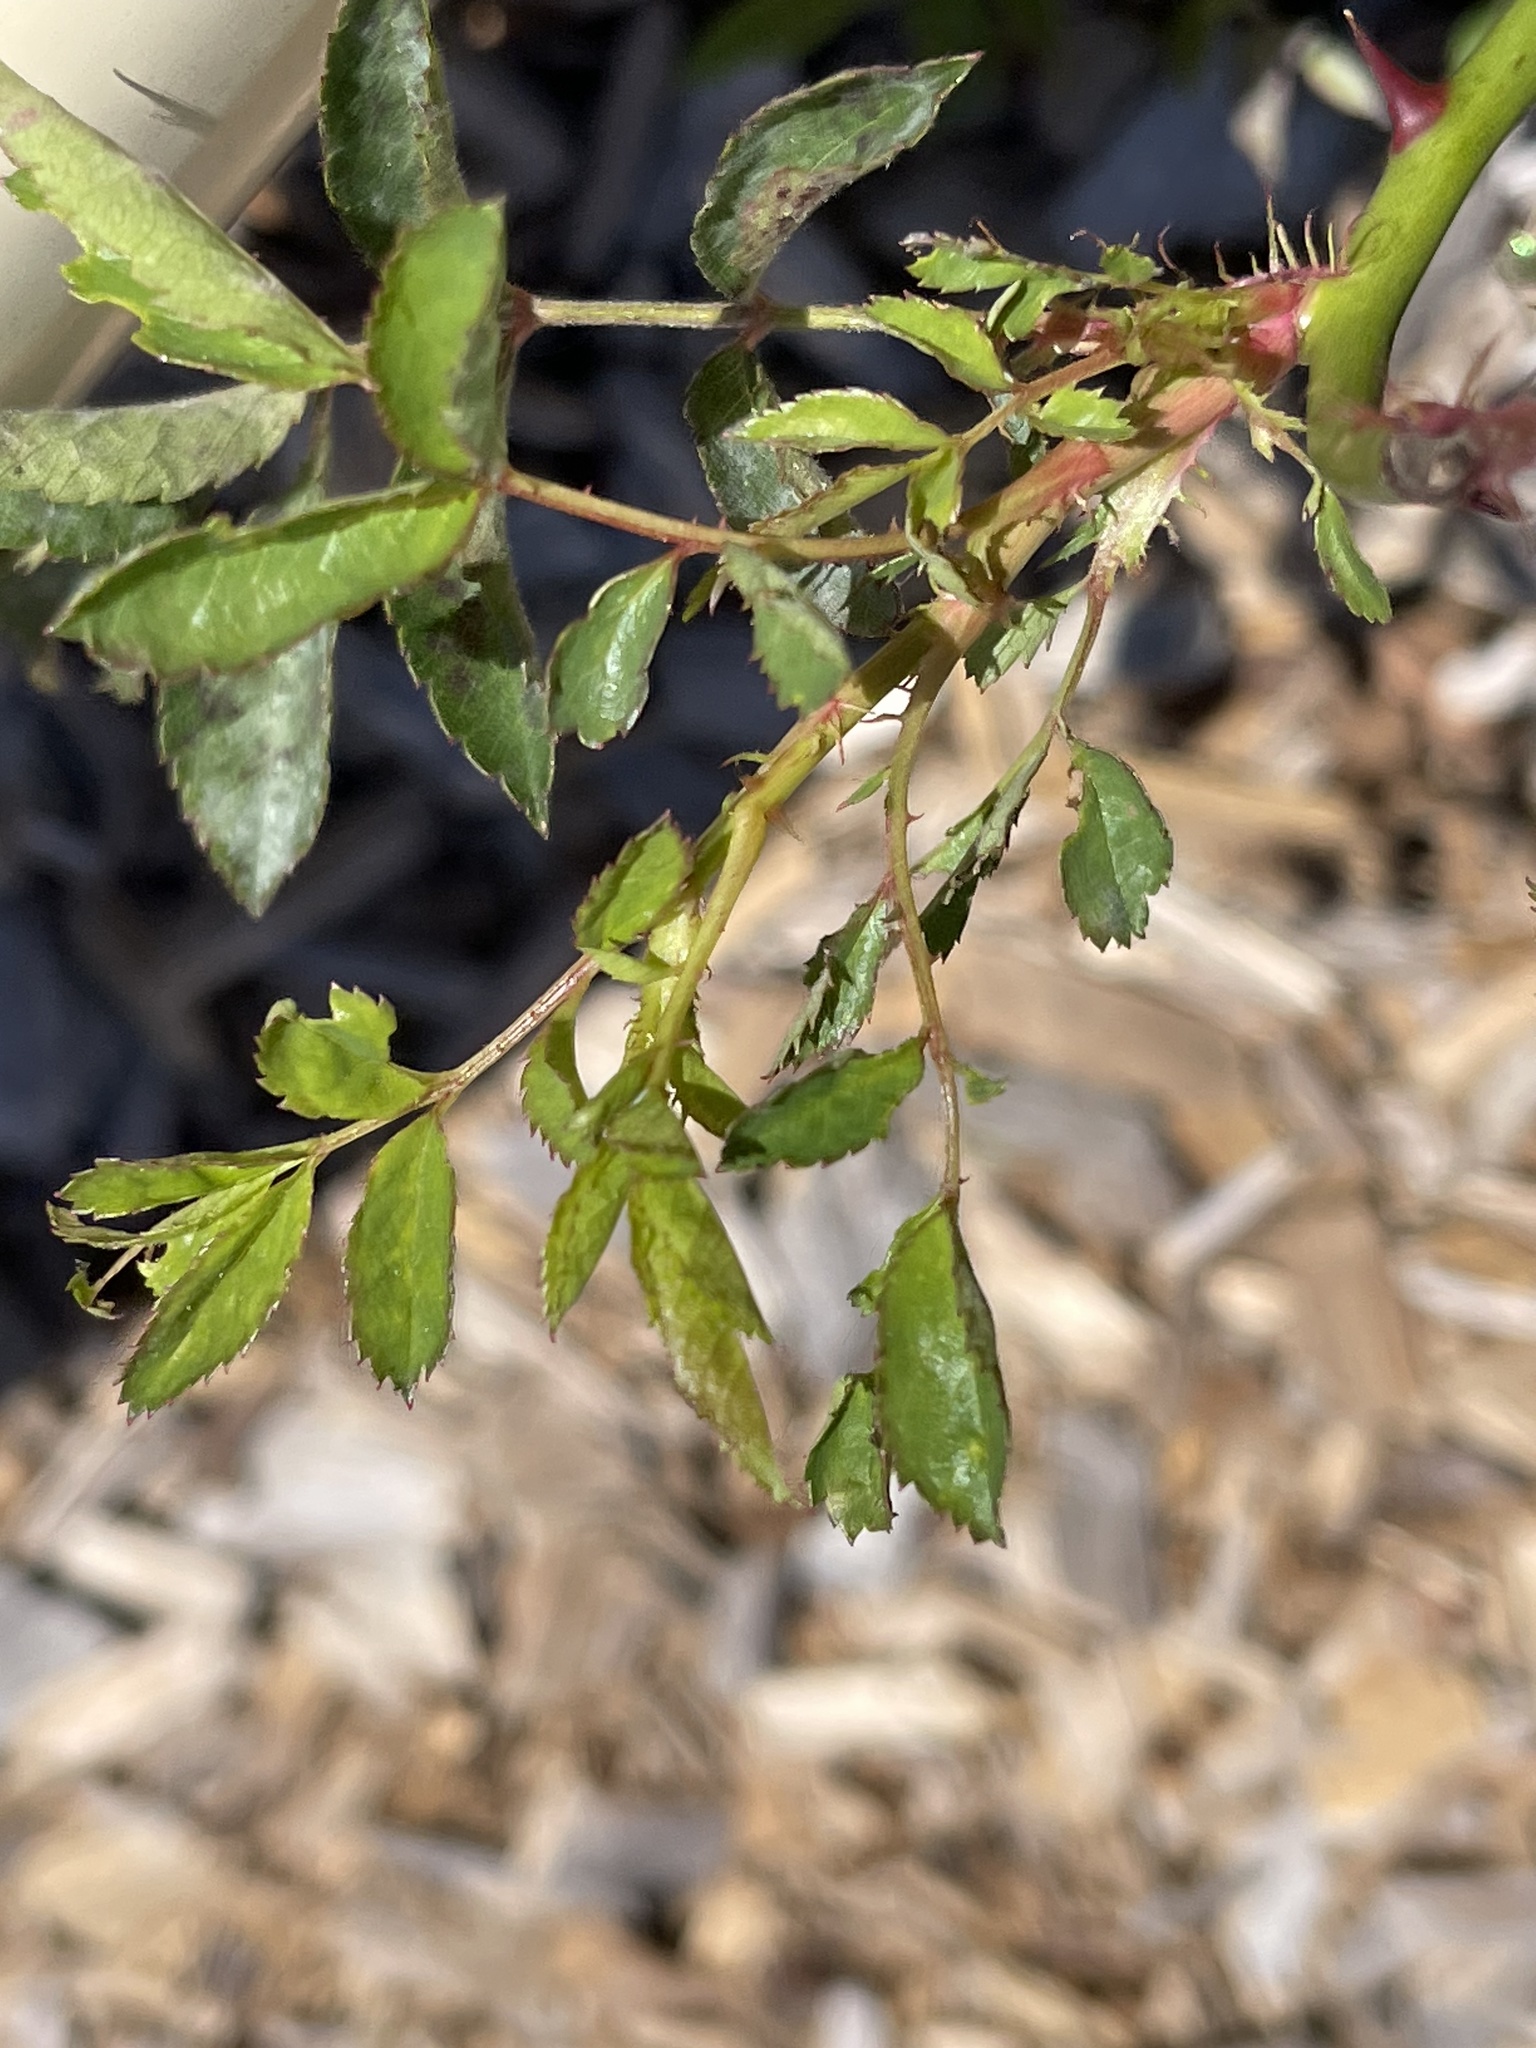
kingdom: Plantae
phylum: Tracheophyta
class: Magnoliopsida
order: Rosales
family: Rosaceae
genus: Rosa
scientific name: Rosa multiflora
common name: Multiflora rose
